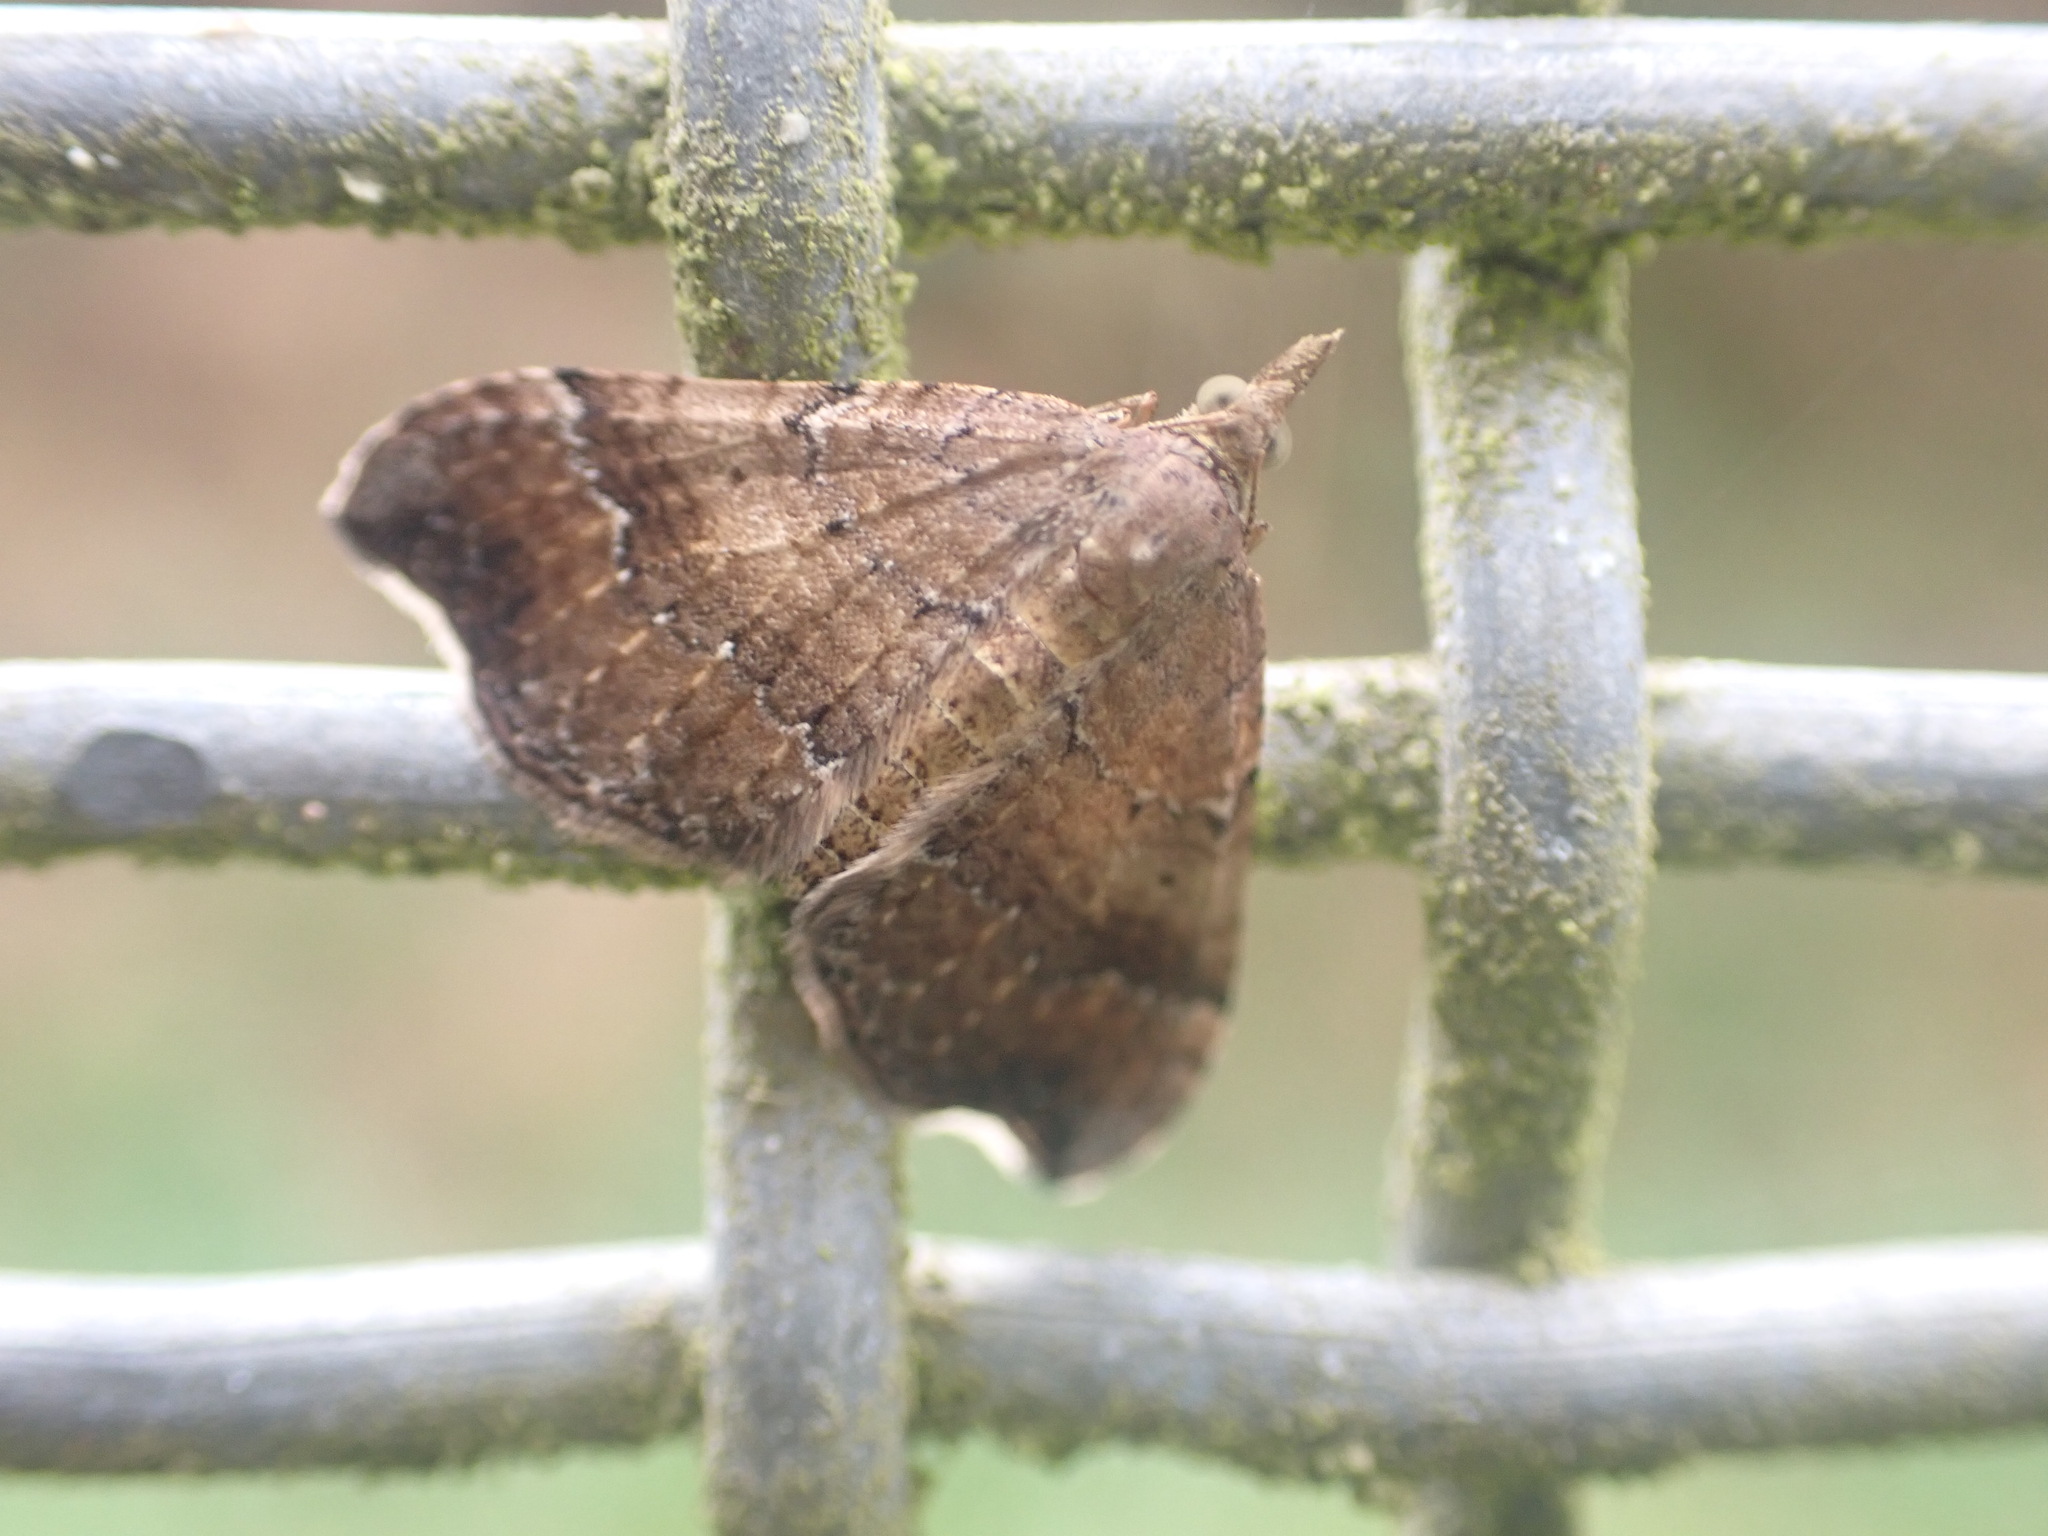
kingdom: Animalia
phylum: Arthropoda
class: Insecta
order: Lepidoptera
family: Geometridae
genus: Homodotis
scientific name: Homodotis megaspilata
